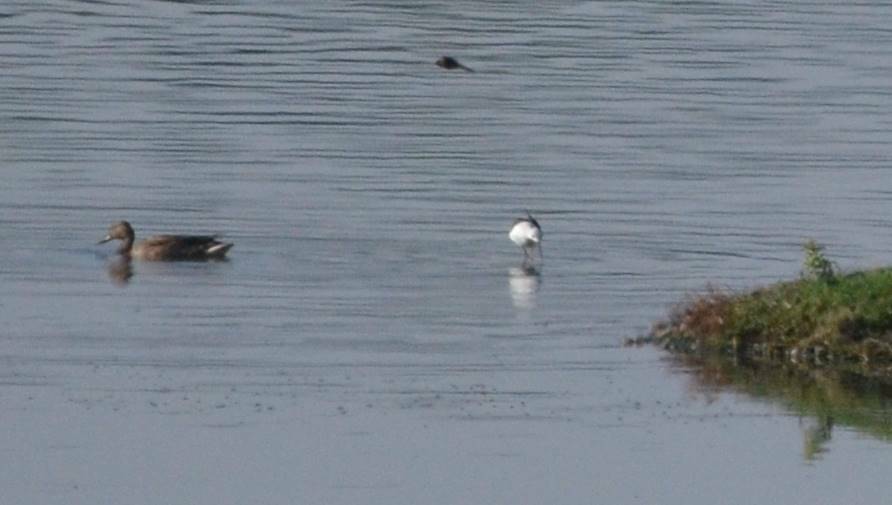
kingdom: Animalia
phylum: Chordata
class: Aves
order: Anseriformes
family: Anatidae
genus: Anas
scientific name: Anas acuta
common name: Northern pintail
